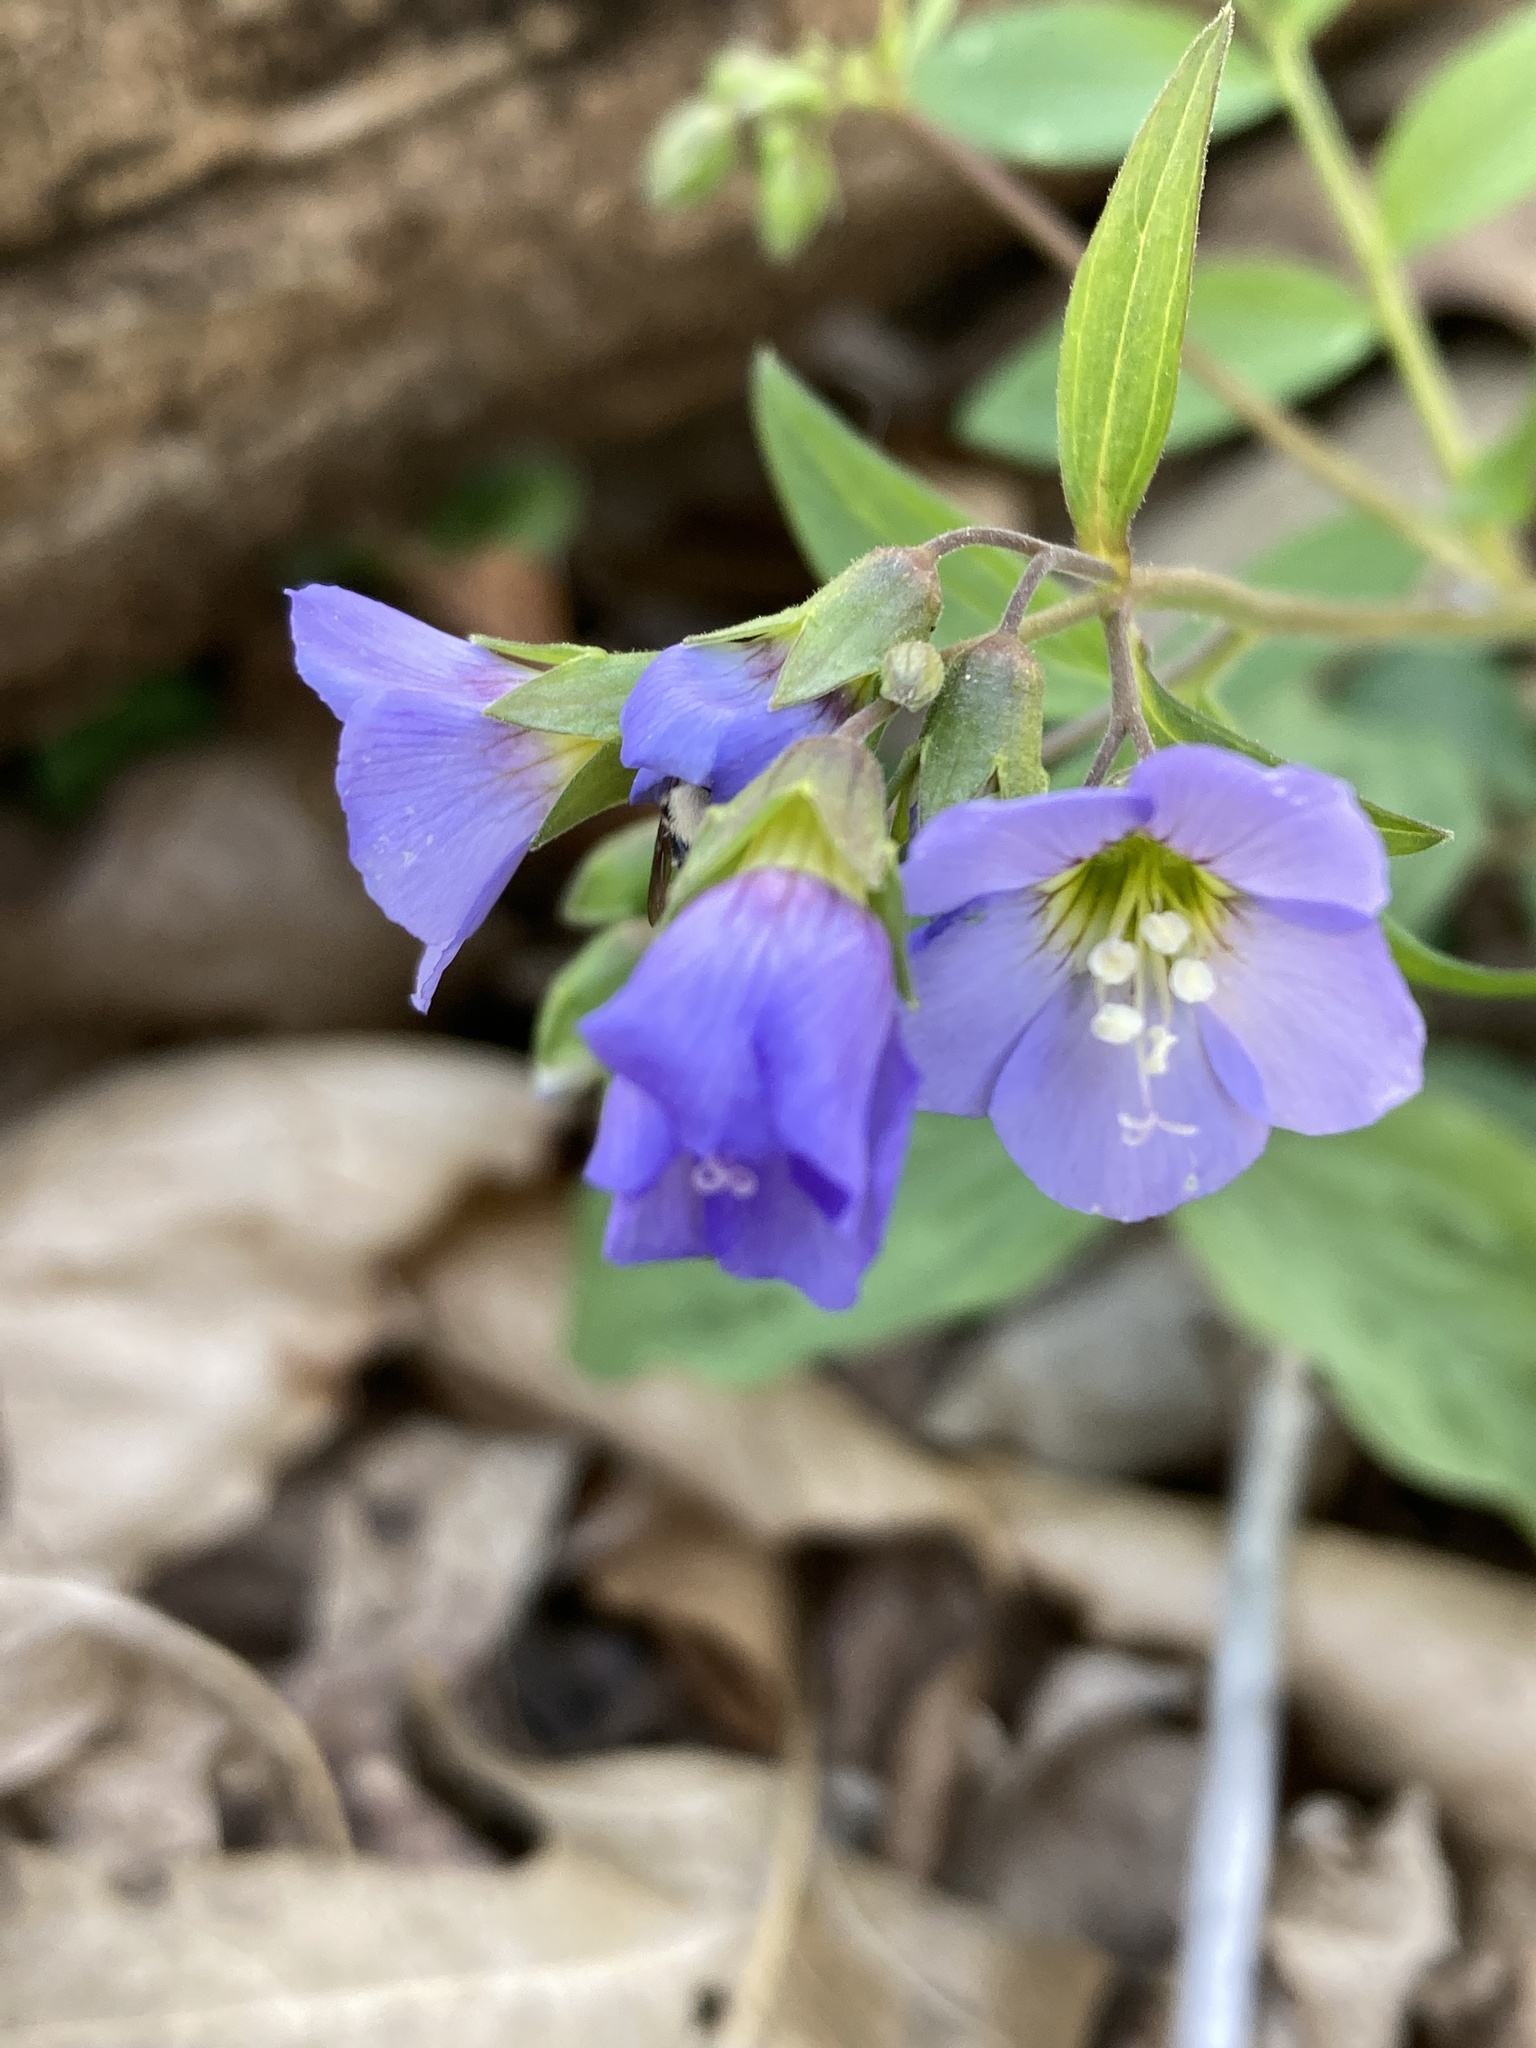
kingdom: Plantae
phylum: Tracheophyta
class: Magnoliopsida
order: Ericales
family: Polemoniaceae
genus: Polemonium
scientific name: Polemonium reptans
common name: Creeping jacob's-ladder
